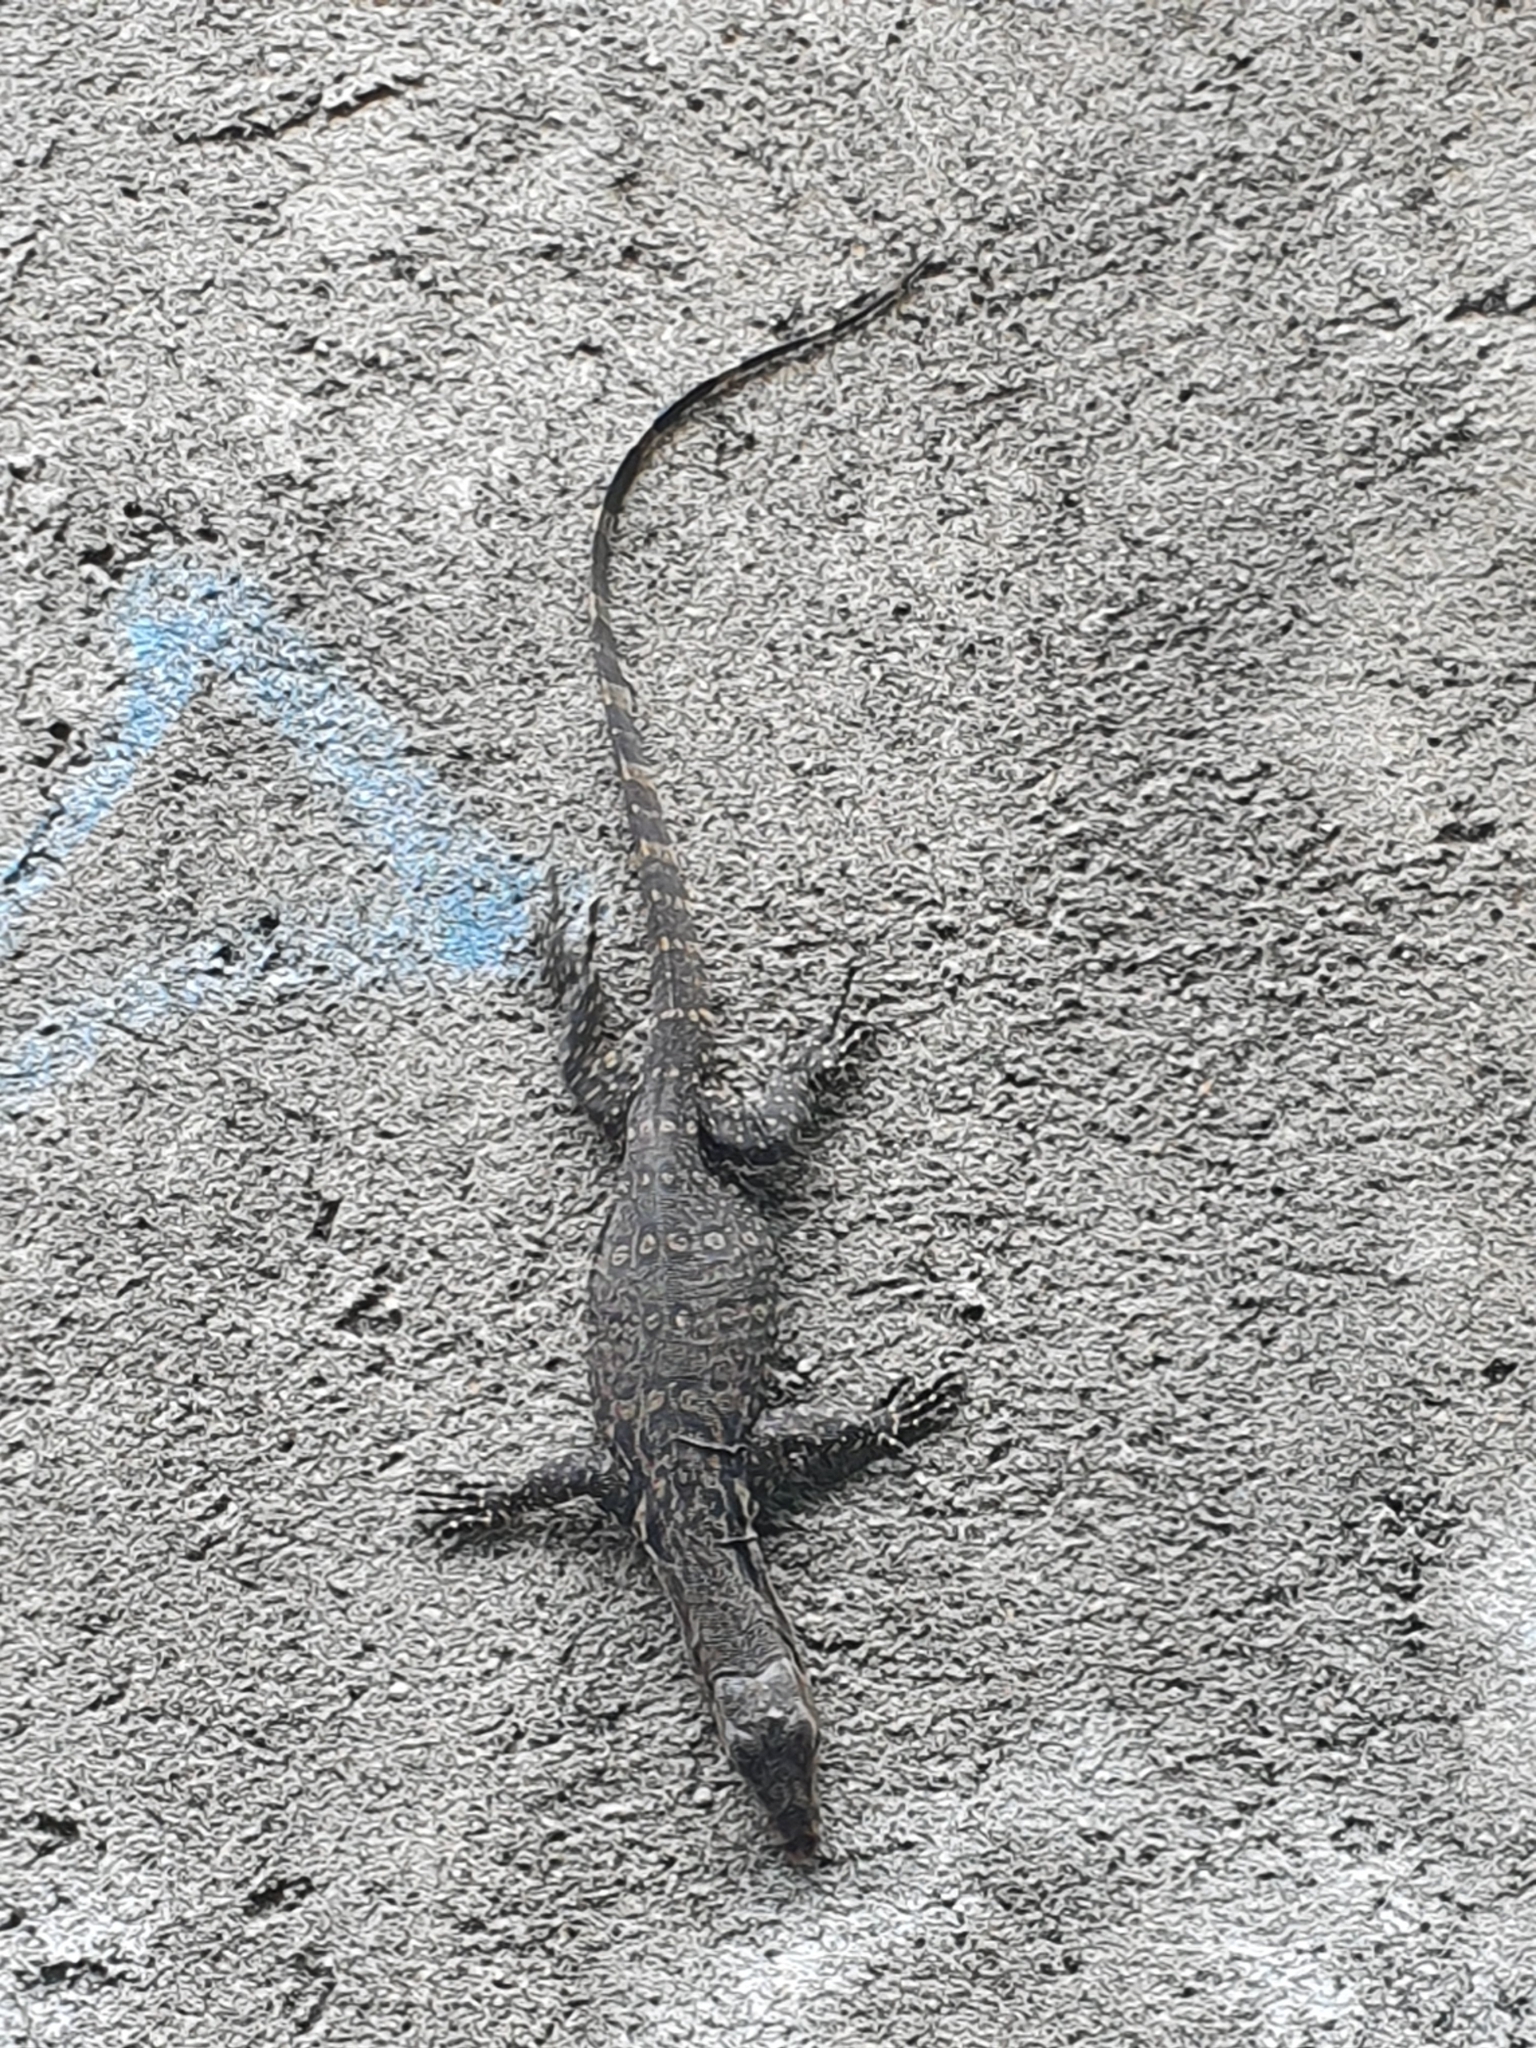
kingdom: Animalia
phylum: Chordata
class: Squamata
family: Varanidae
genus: Varanus
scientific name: Varanus salvator
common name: Common water monitor
